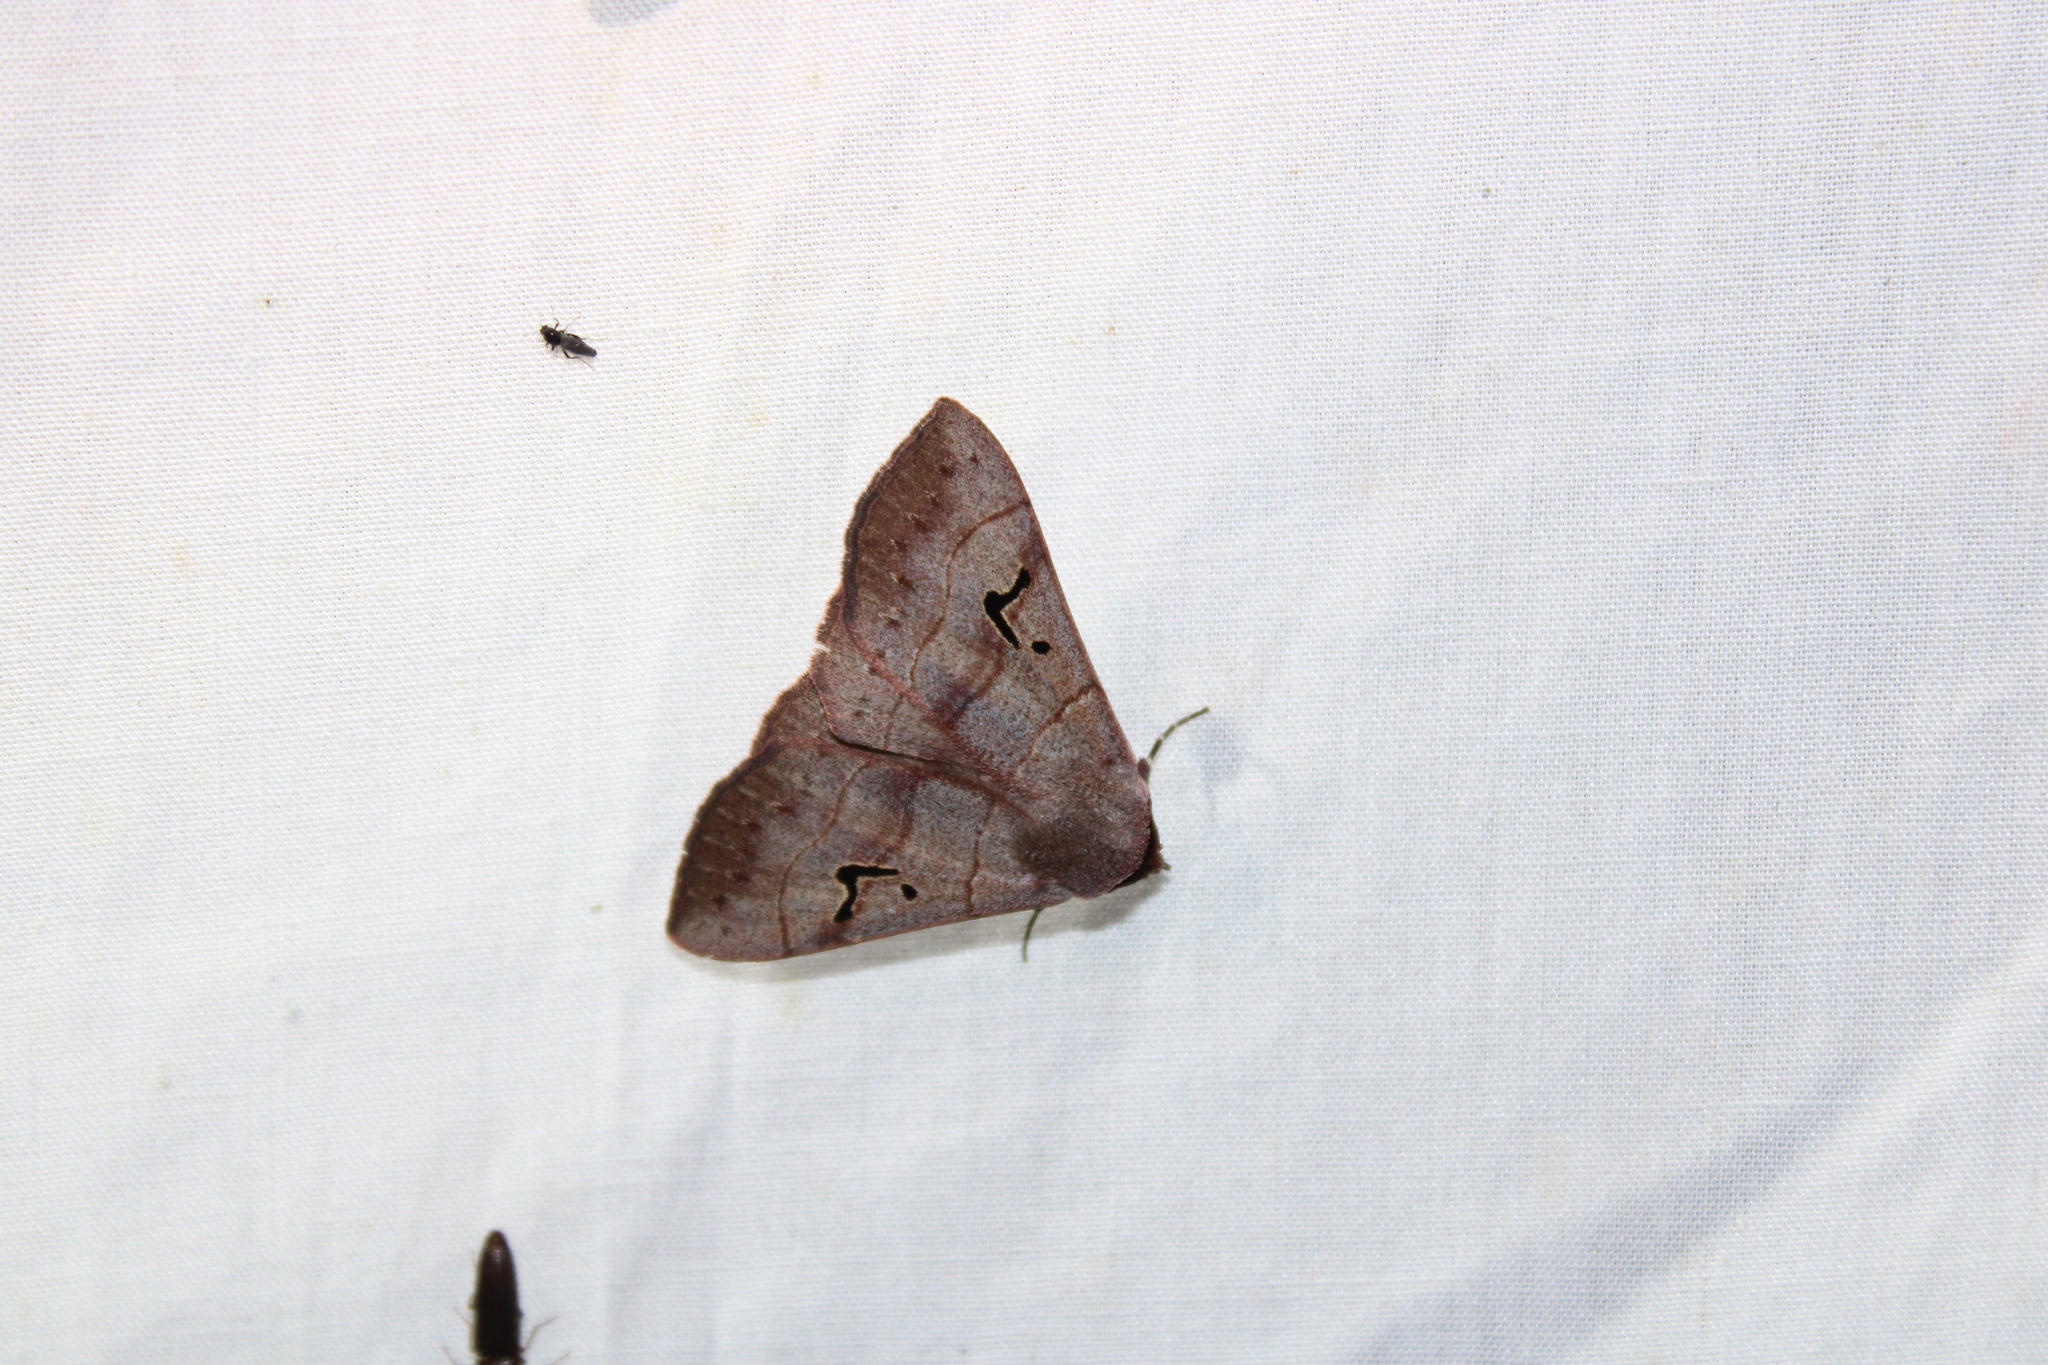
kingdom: Animalia
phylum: Arthropoda
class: Insecta
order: Lepidoptera
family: Erebidae
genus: Panopoda
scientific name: Panopoda carneicosta
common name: Brown panopoda moth
